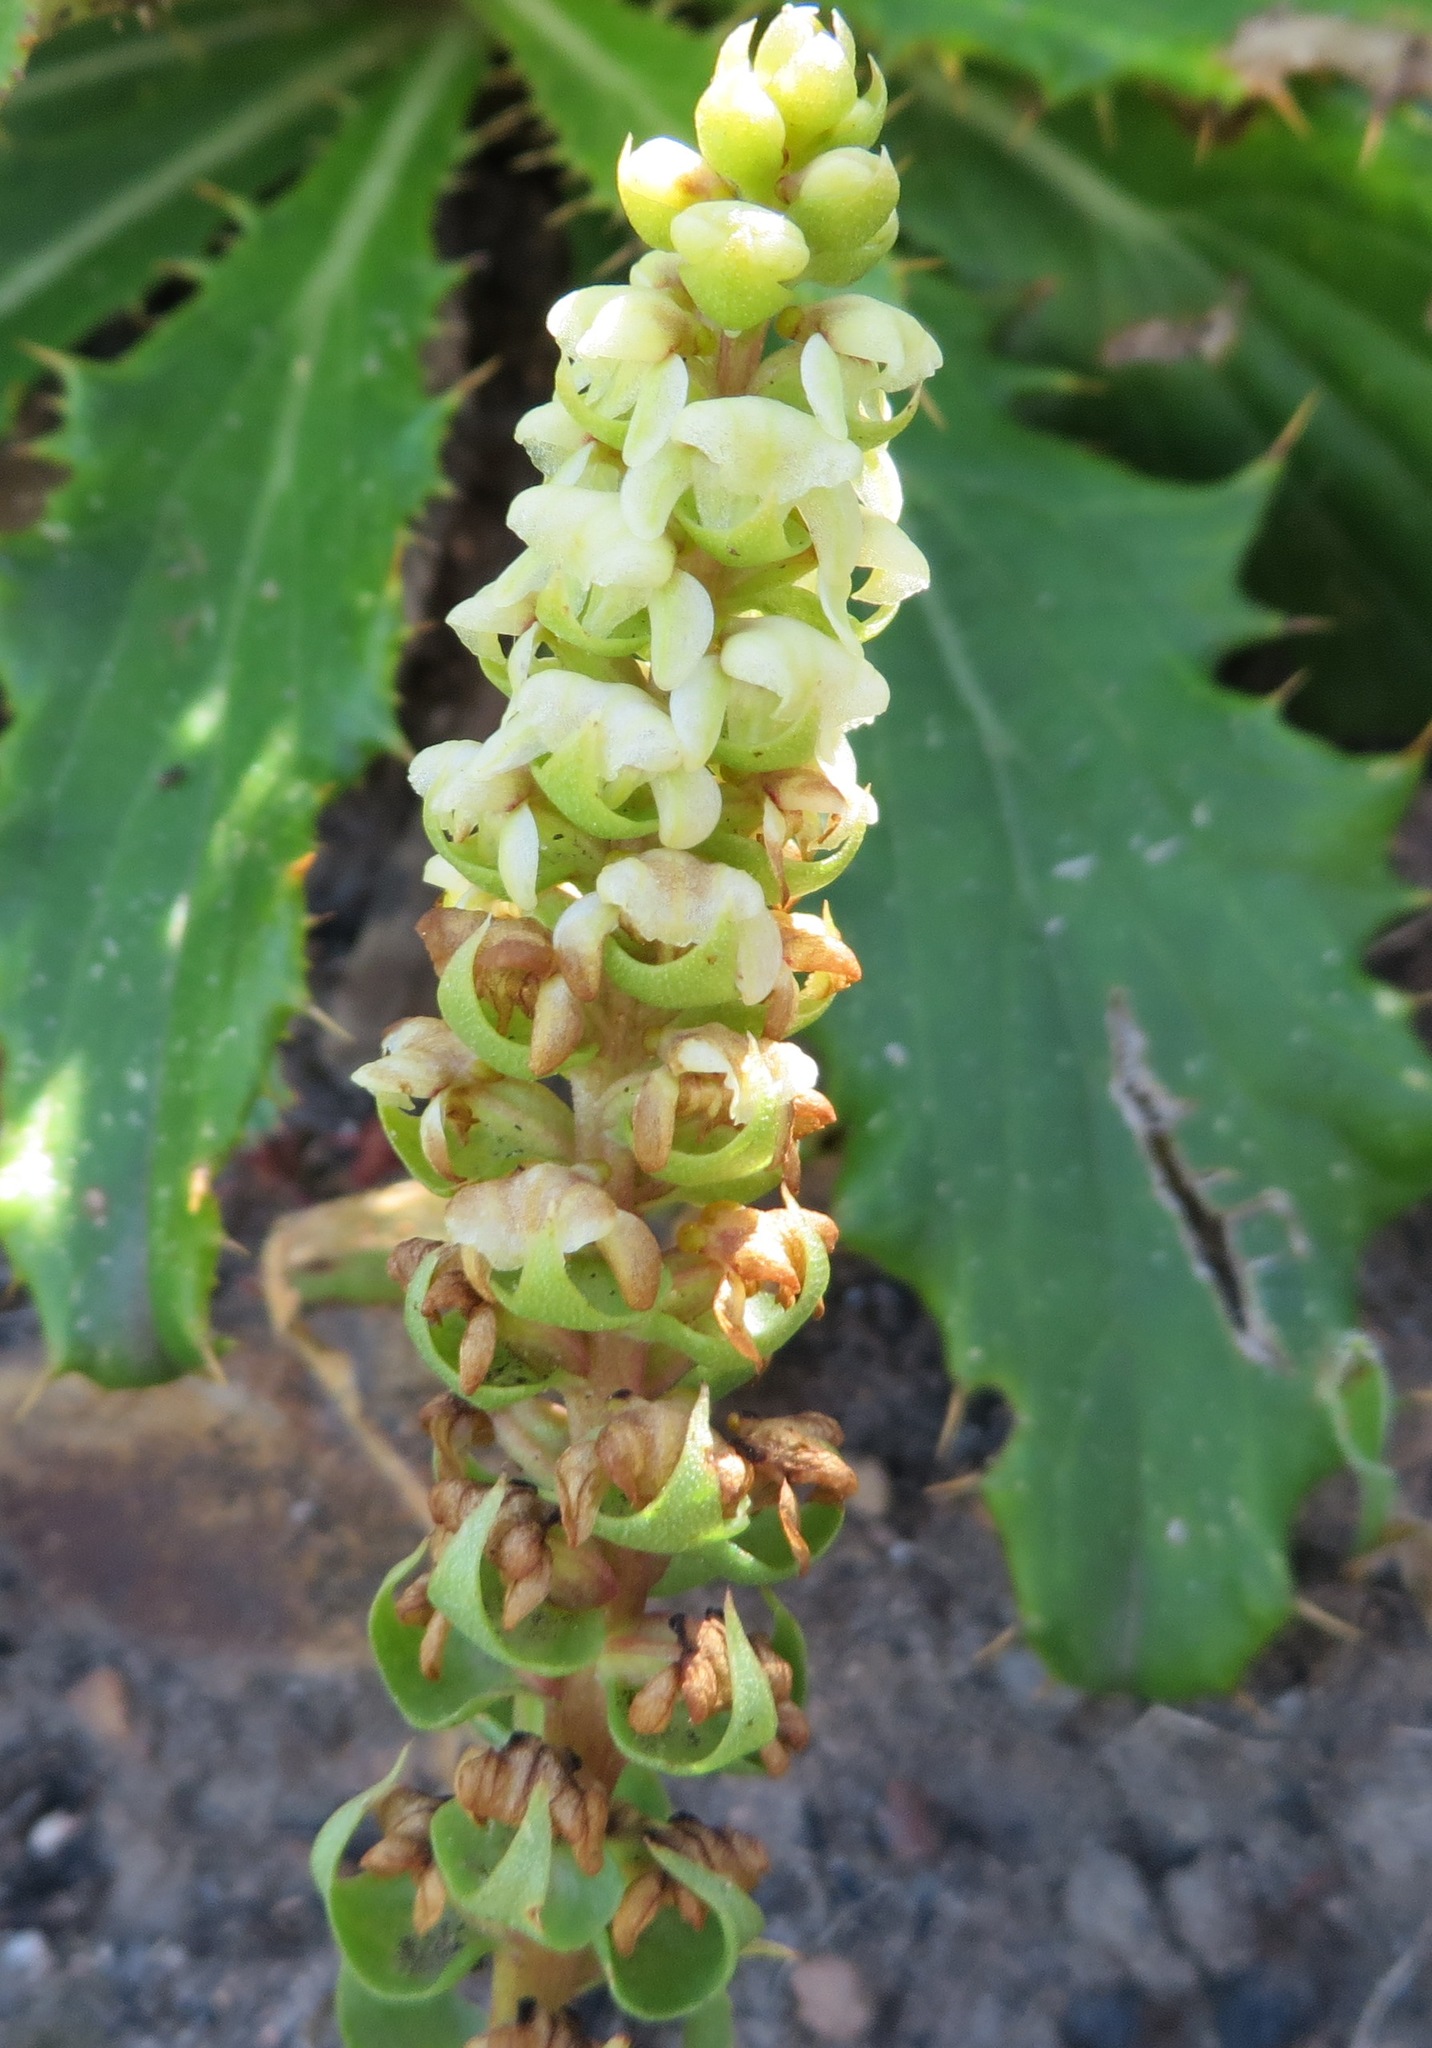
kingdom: Plantae
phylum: Tracheophyta
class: Liliopsida
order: Asparagales
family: Orchidaceae
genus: Satyrium
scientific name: Satyrium bicallosum
